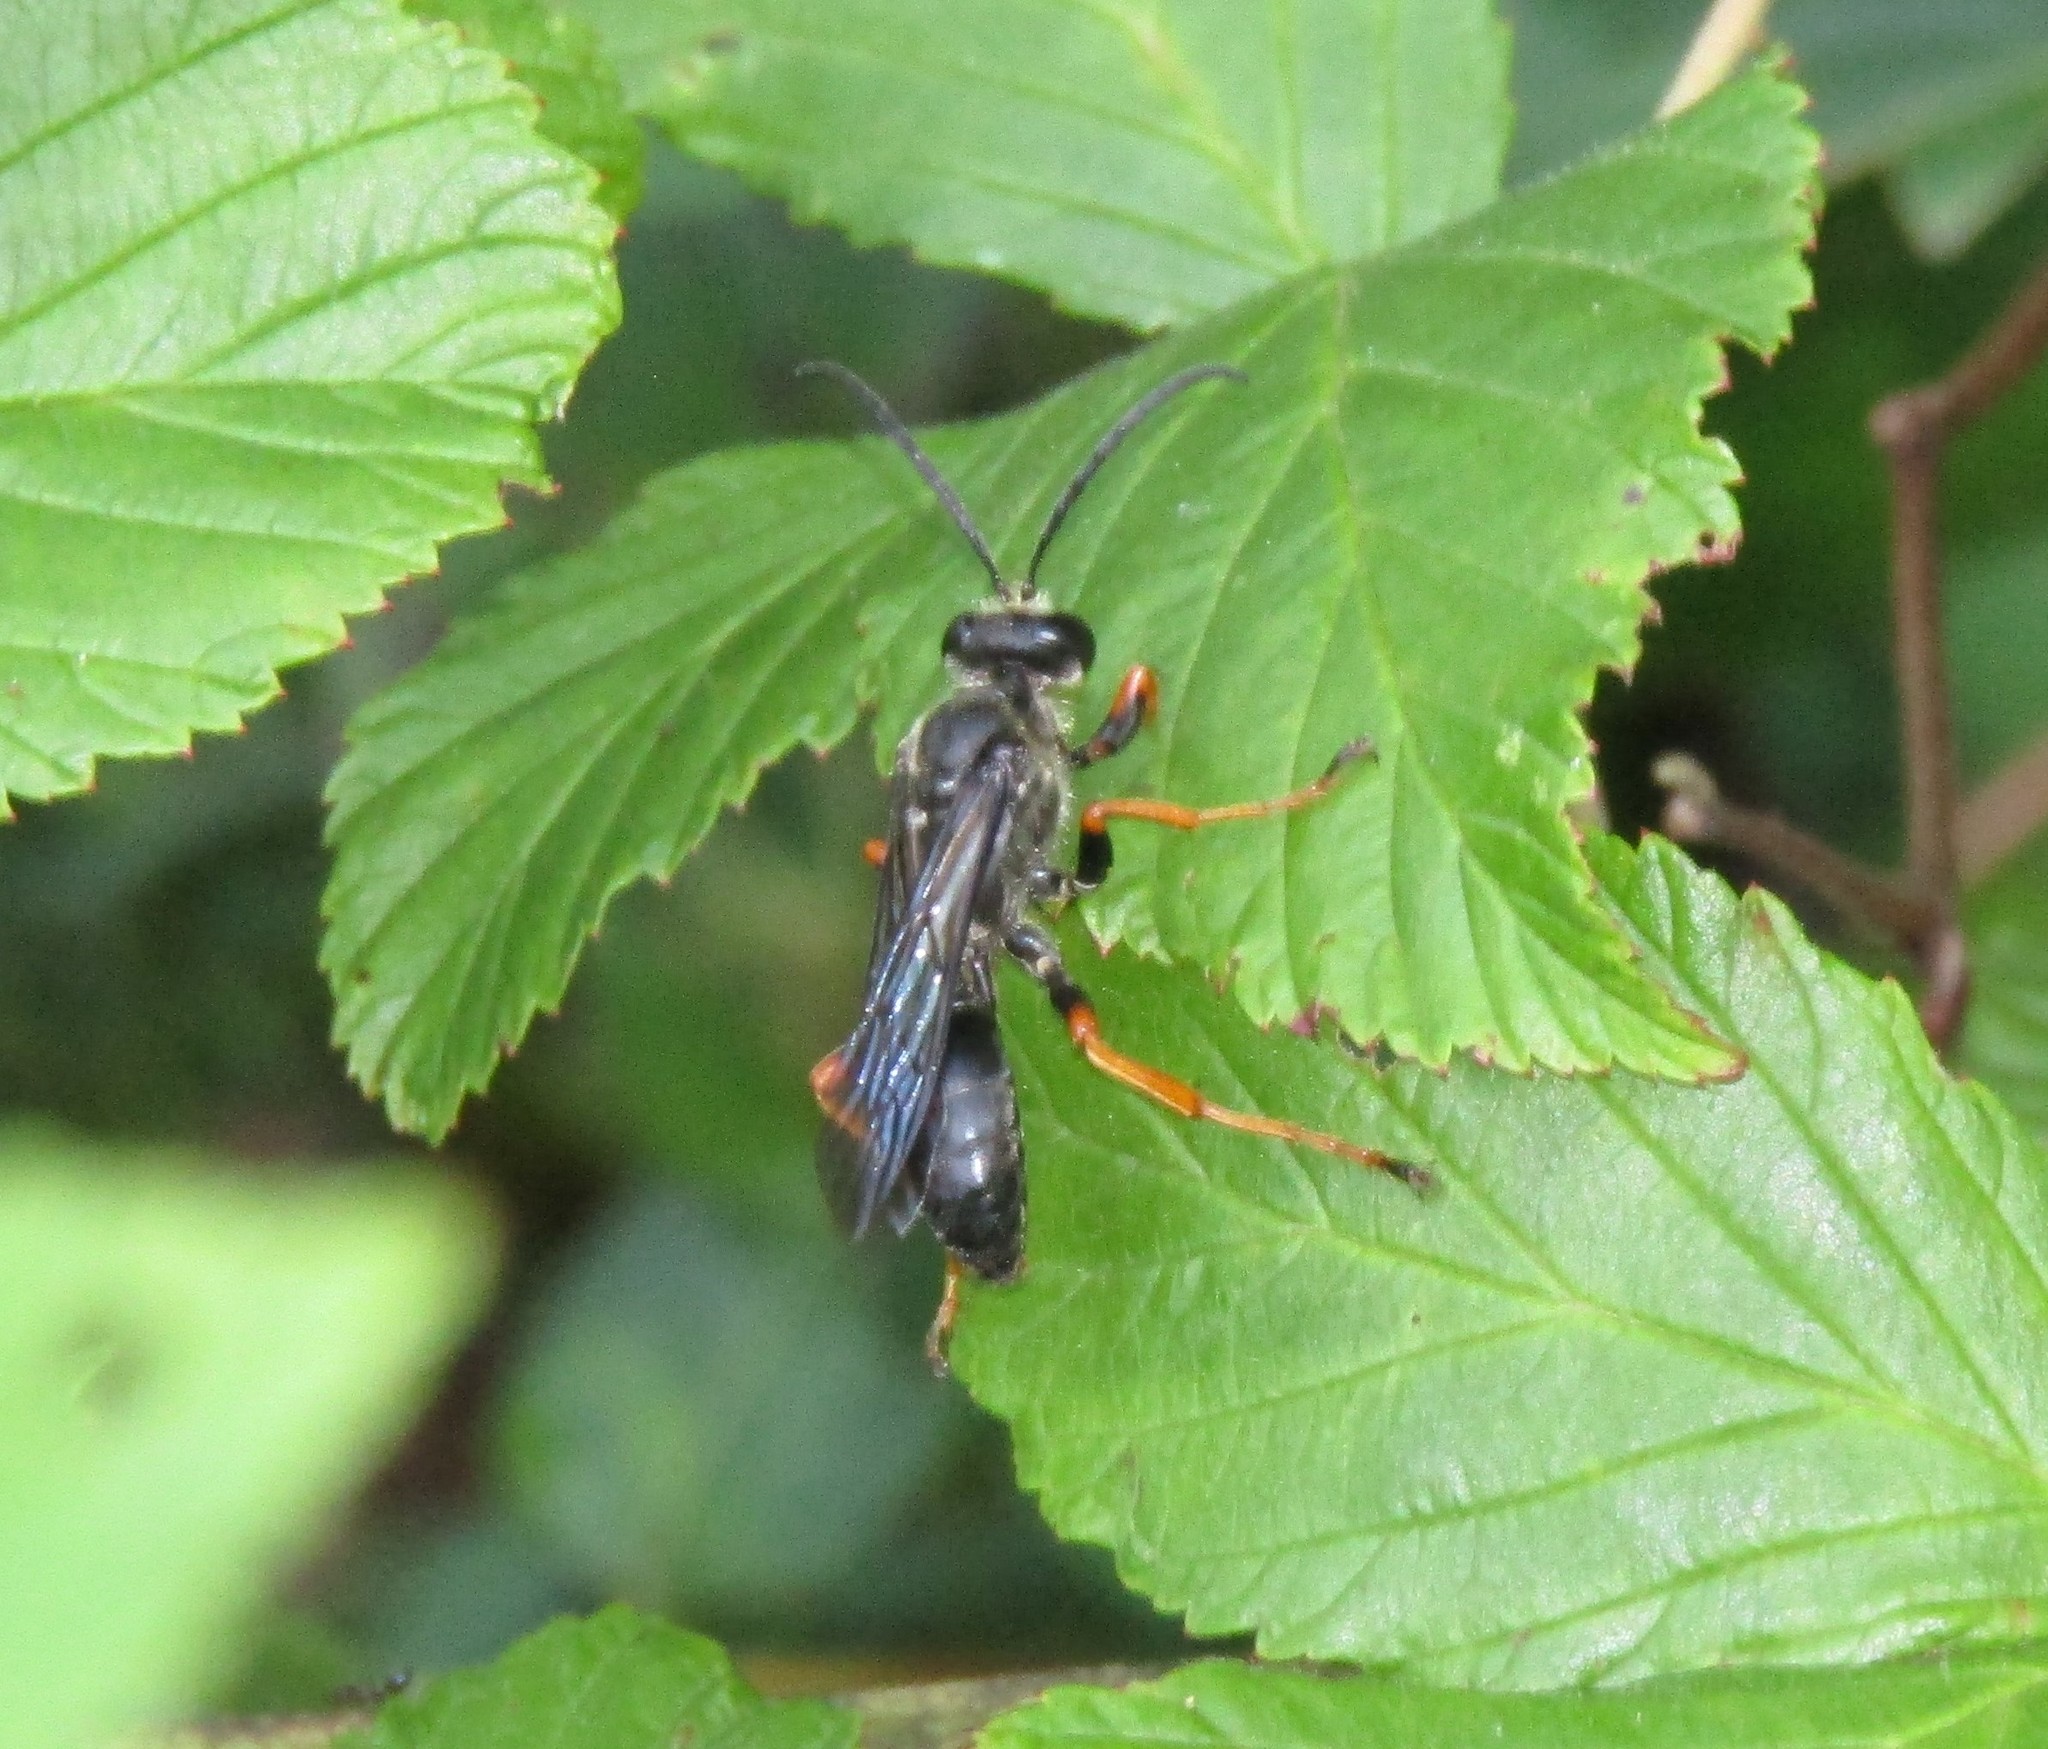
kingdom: Animalia
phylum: Arthropoda
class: Insecta
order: Hymenoptera
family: Sphecidae
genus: Sphex
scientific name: Sphex nudus
